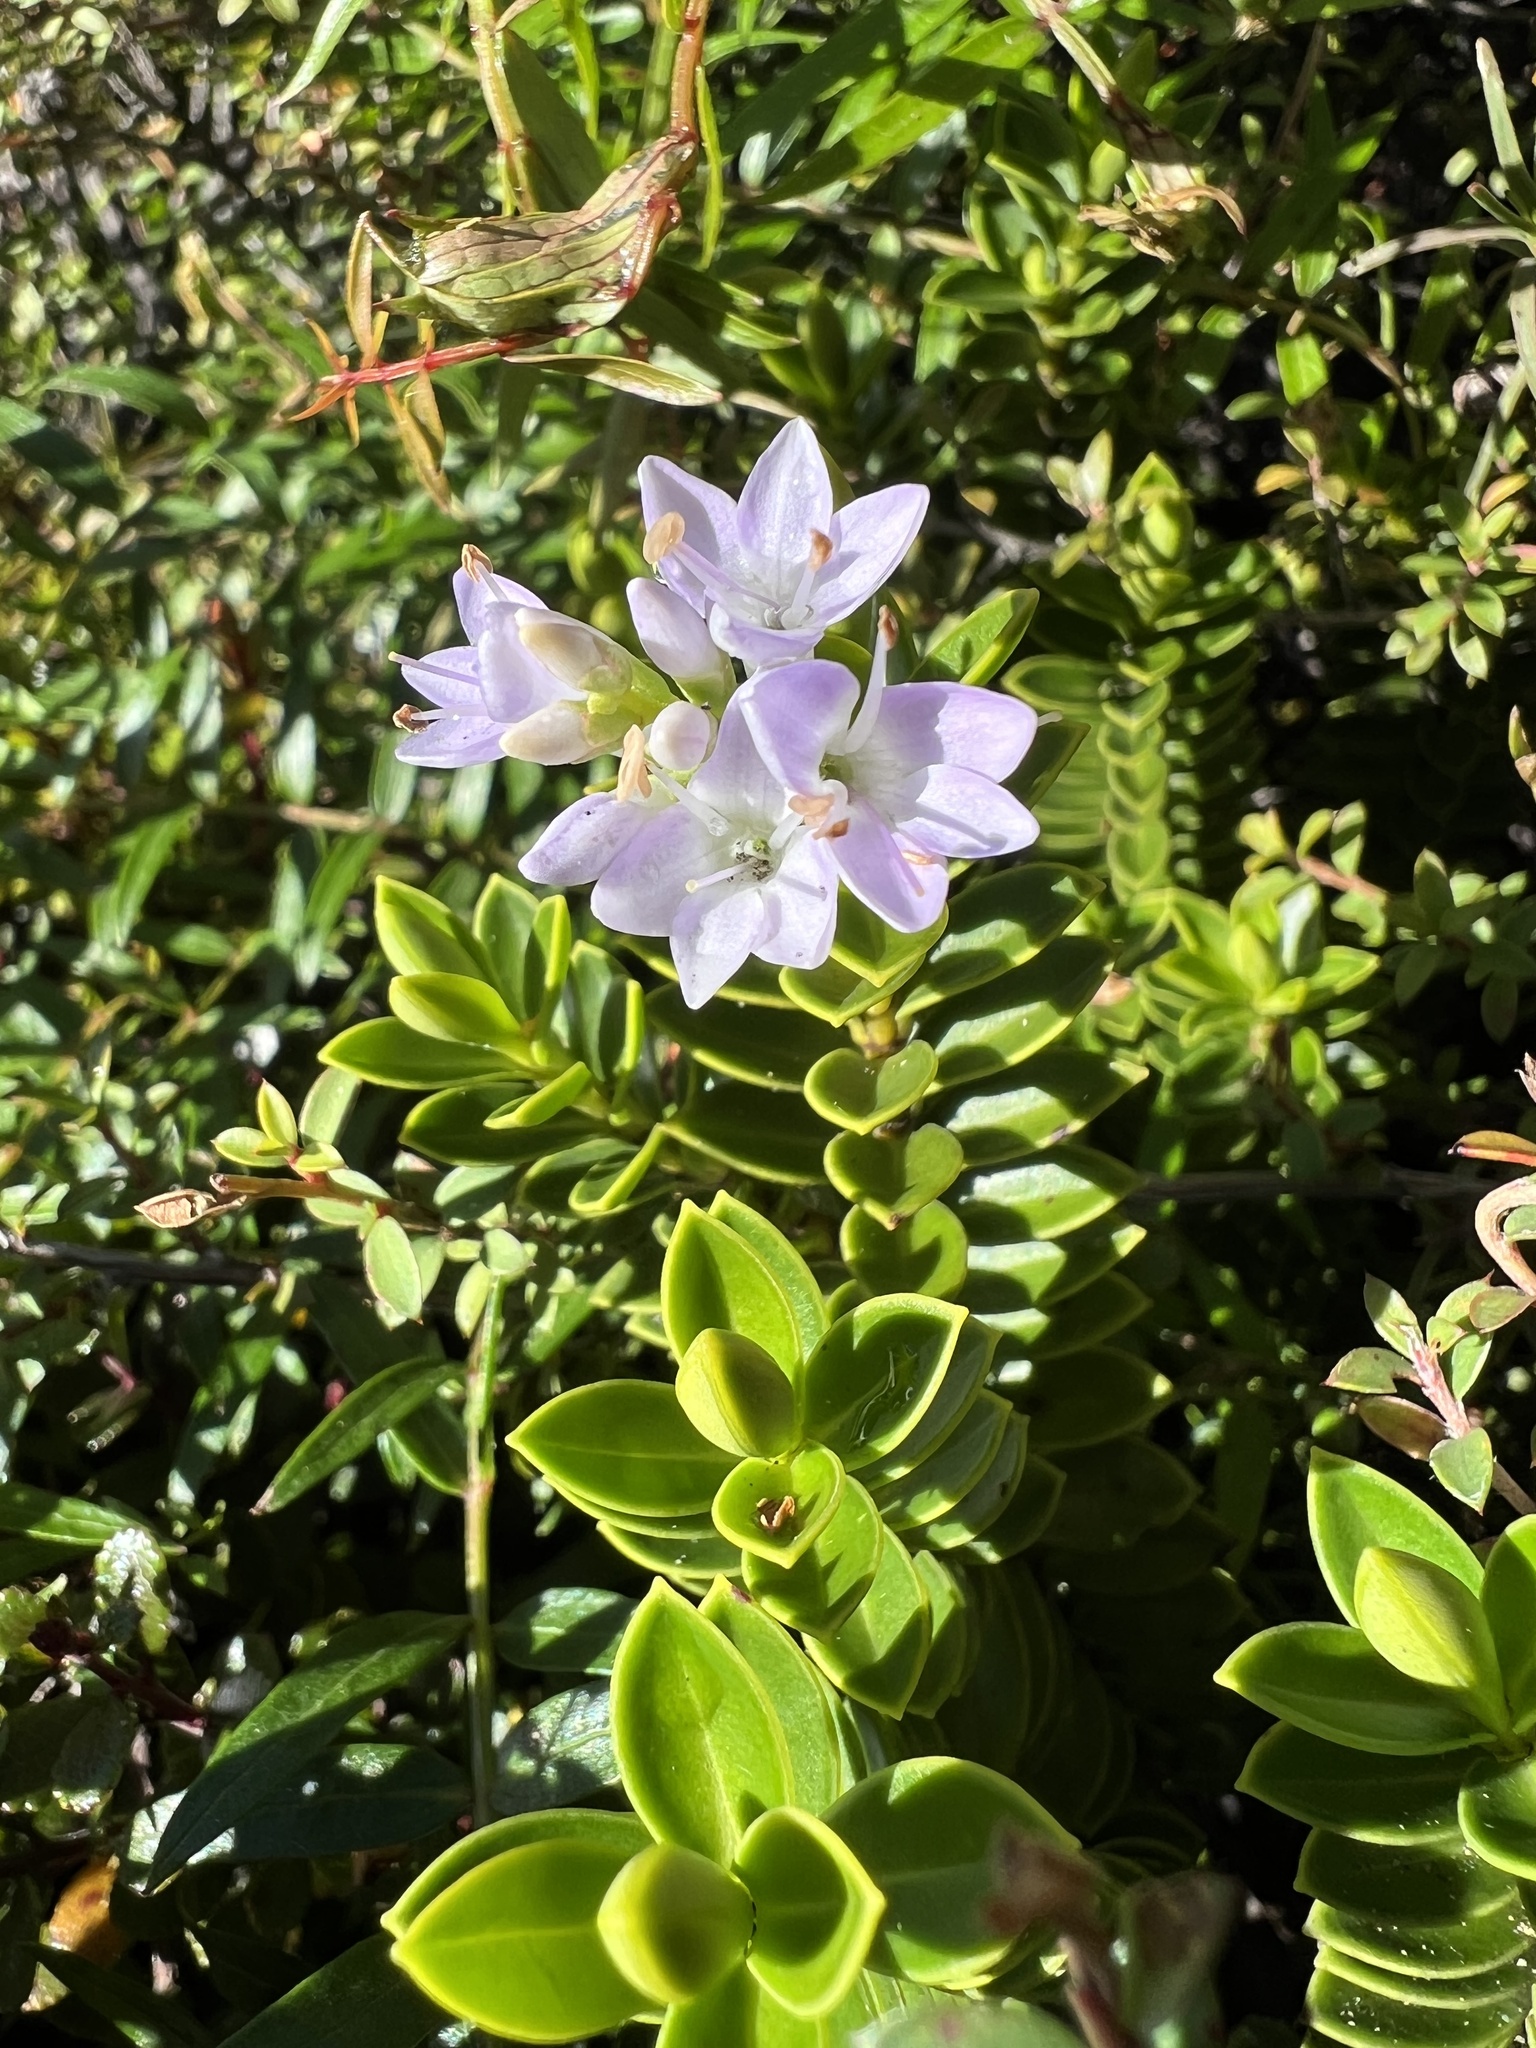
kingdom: Plantae
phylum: Tracheophyta
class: Magnoliopsida
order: Lamiales
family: Plantaginaceae
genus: Veronica
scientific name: Veronica venustula
